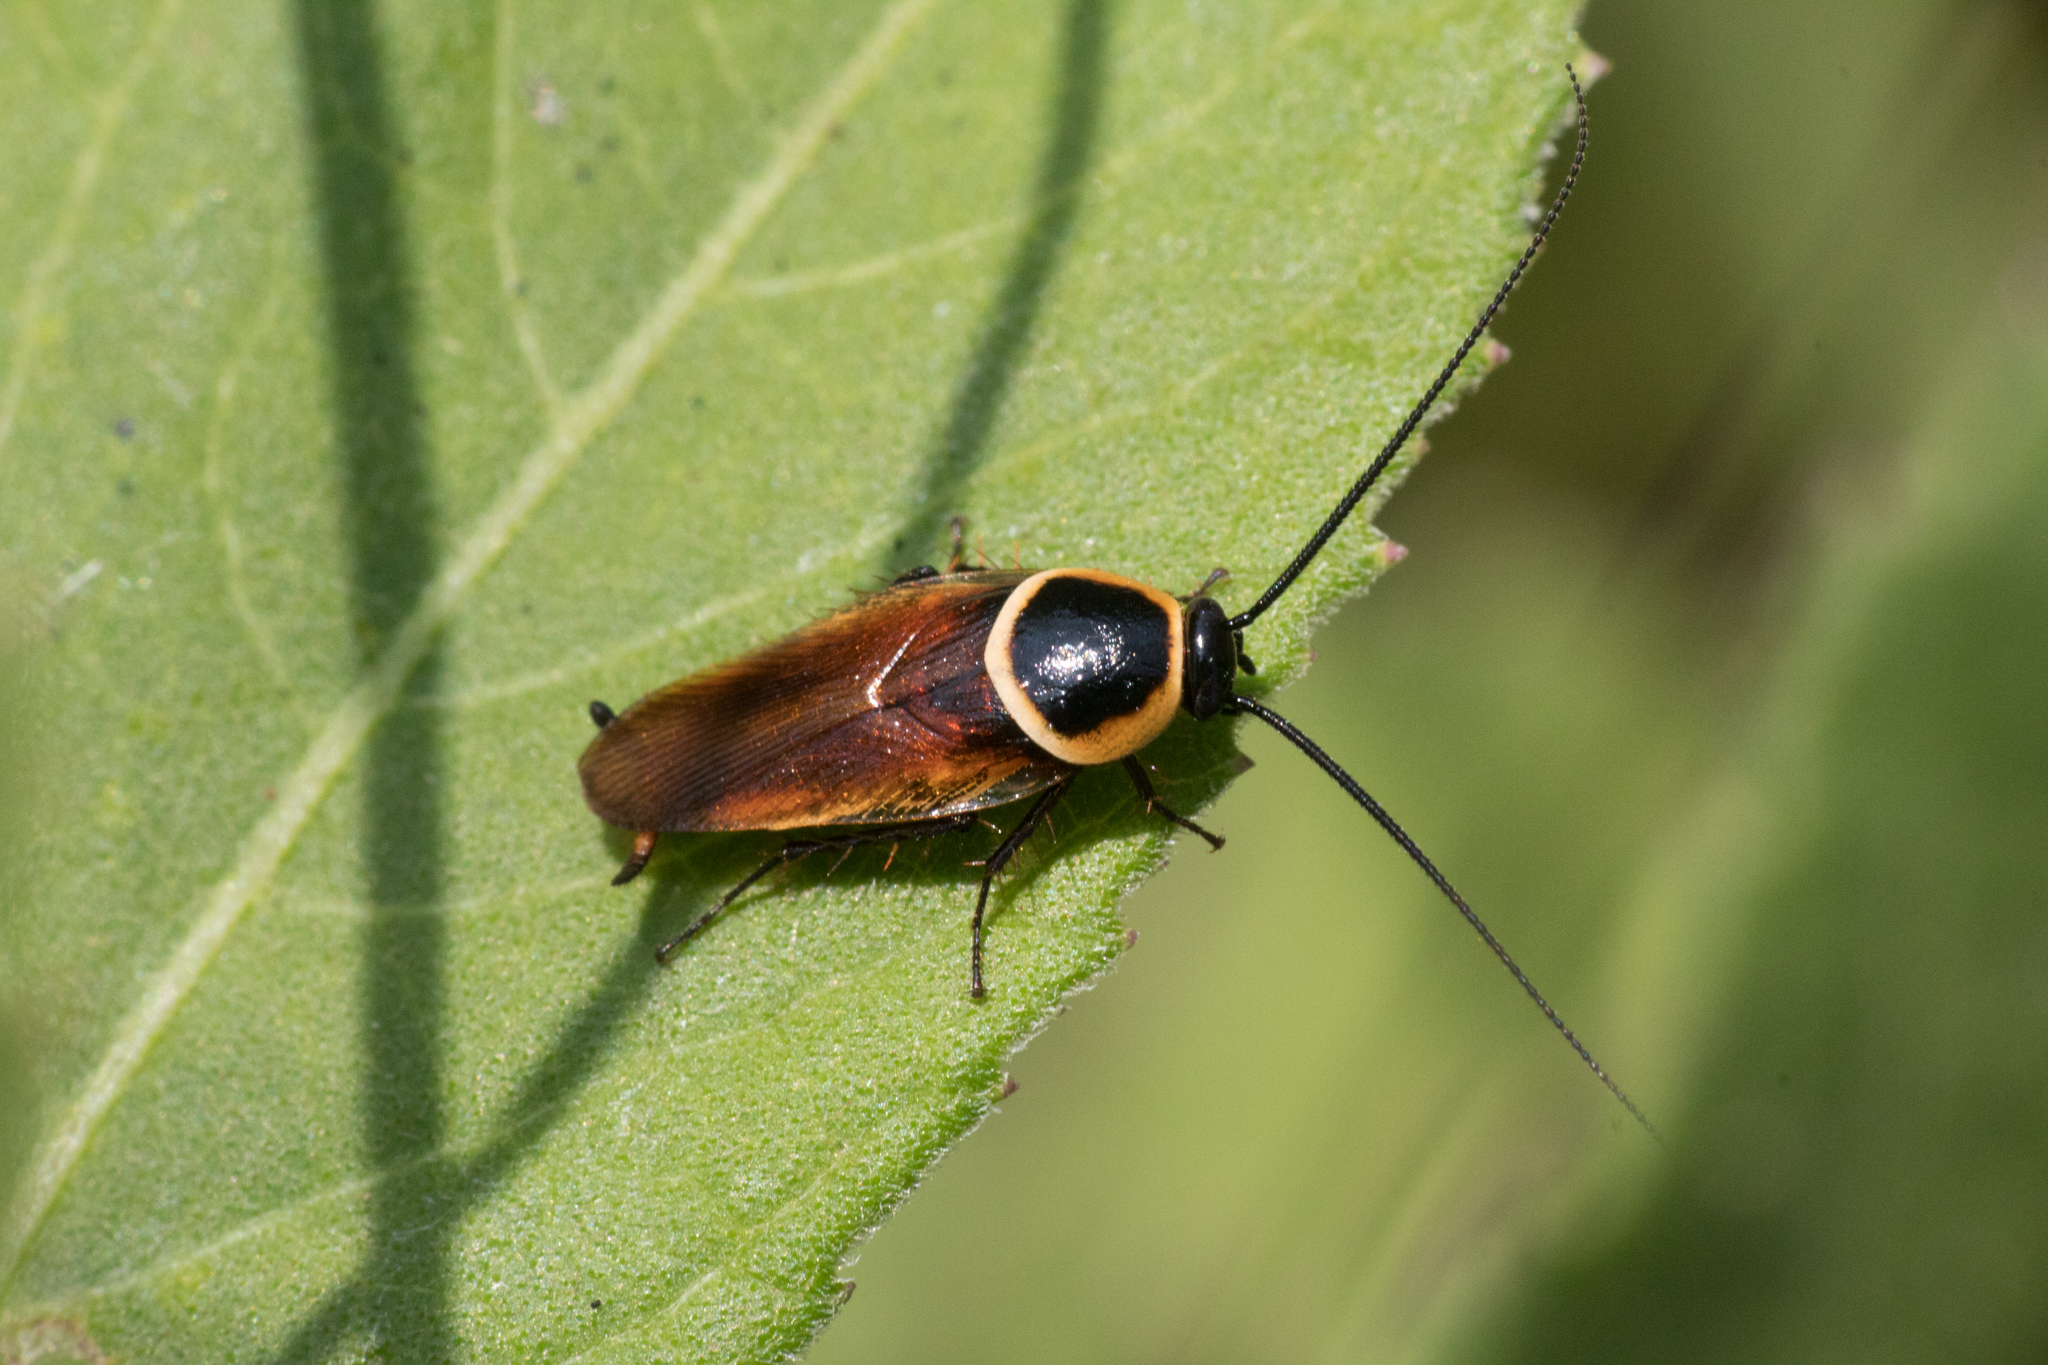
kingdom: Animalia
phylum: Arthropoda
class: Insecta
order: Blattodea
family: Ectobiidae
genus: Pseudomops
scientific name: Pseudomops neglectus
